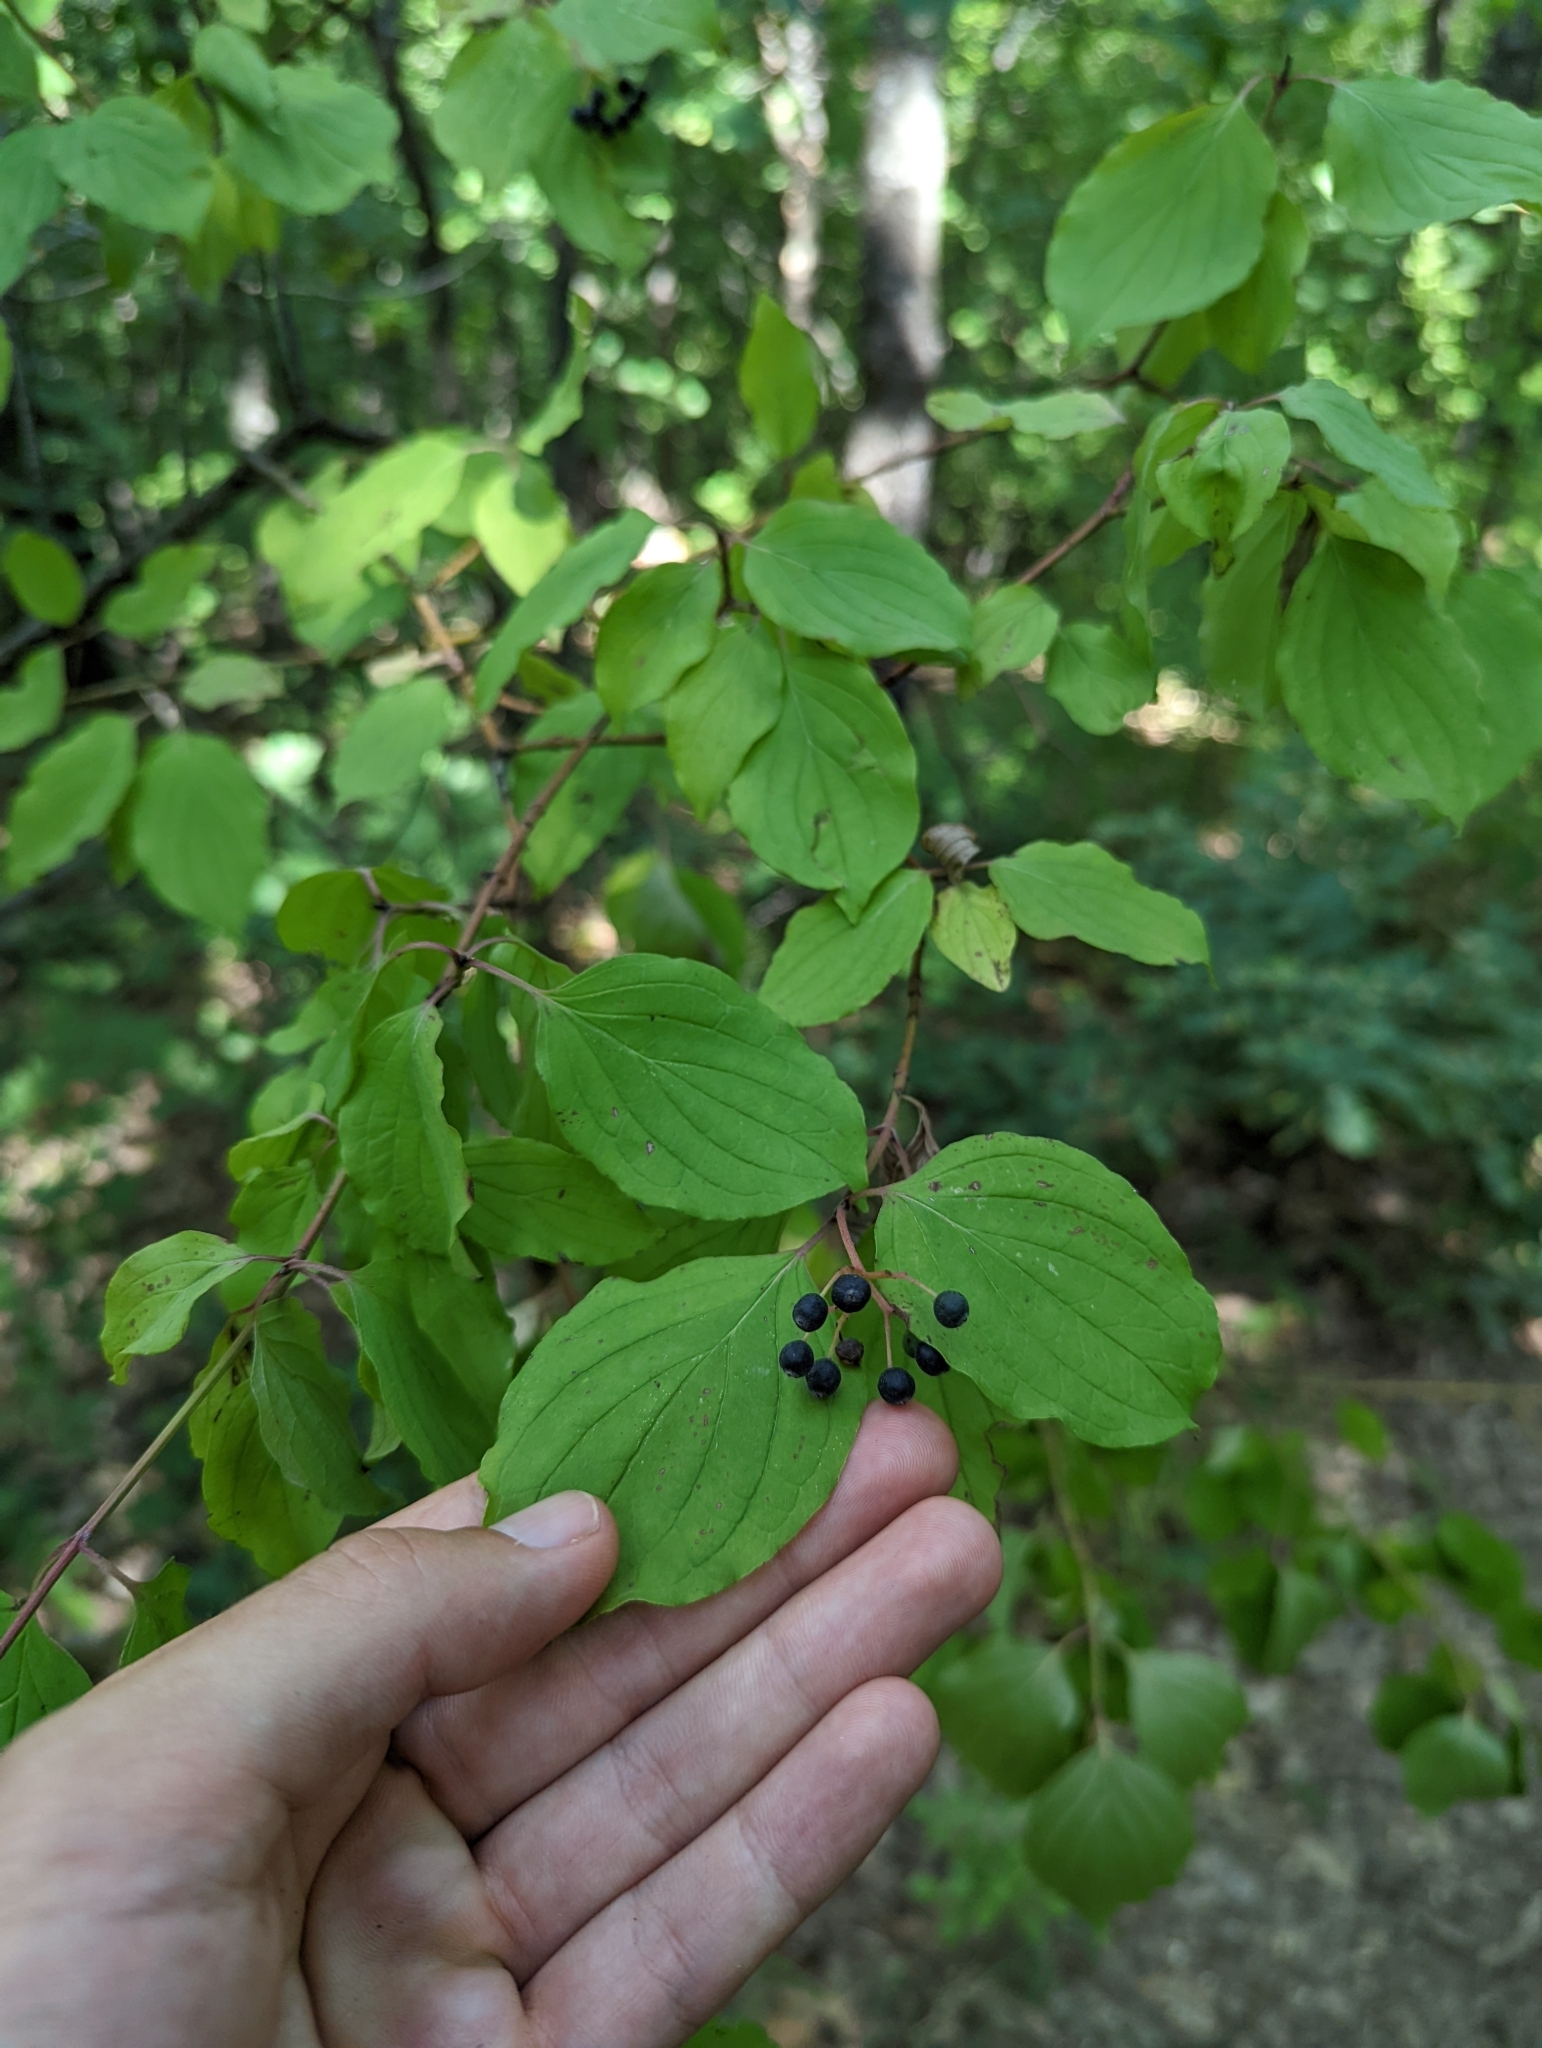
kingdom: Plantae
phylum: Tracheophyta
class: Magnoliopsida
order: Cornales
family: Cornaceae
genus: Cornus
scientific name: Cornus sanguinea
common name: Dogwood
